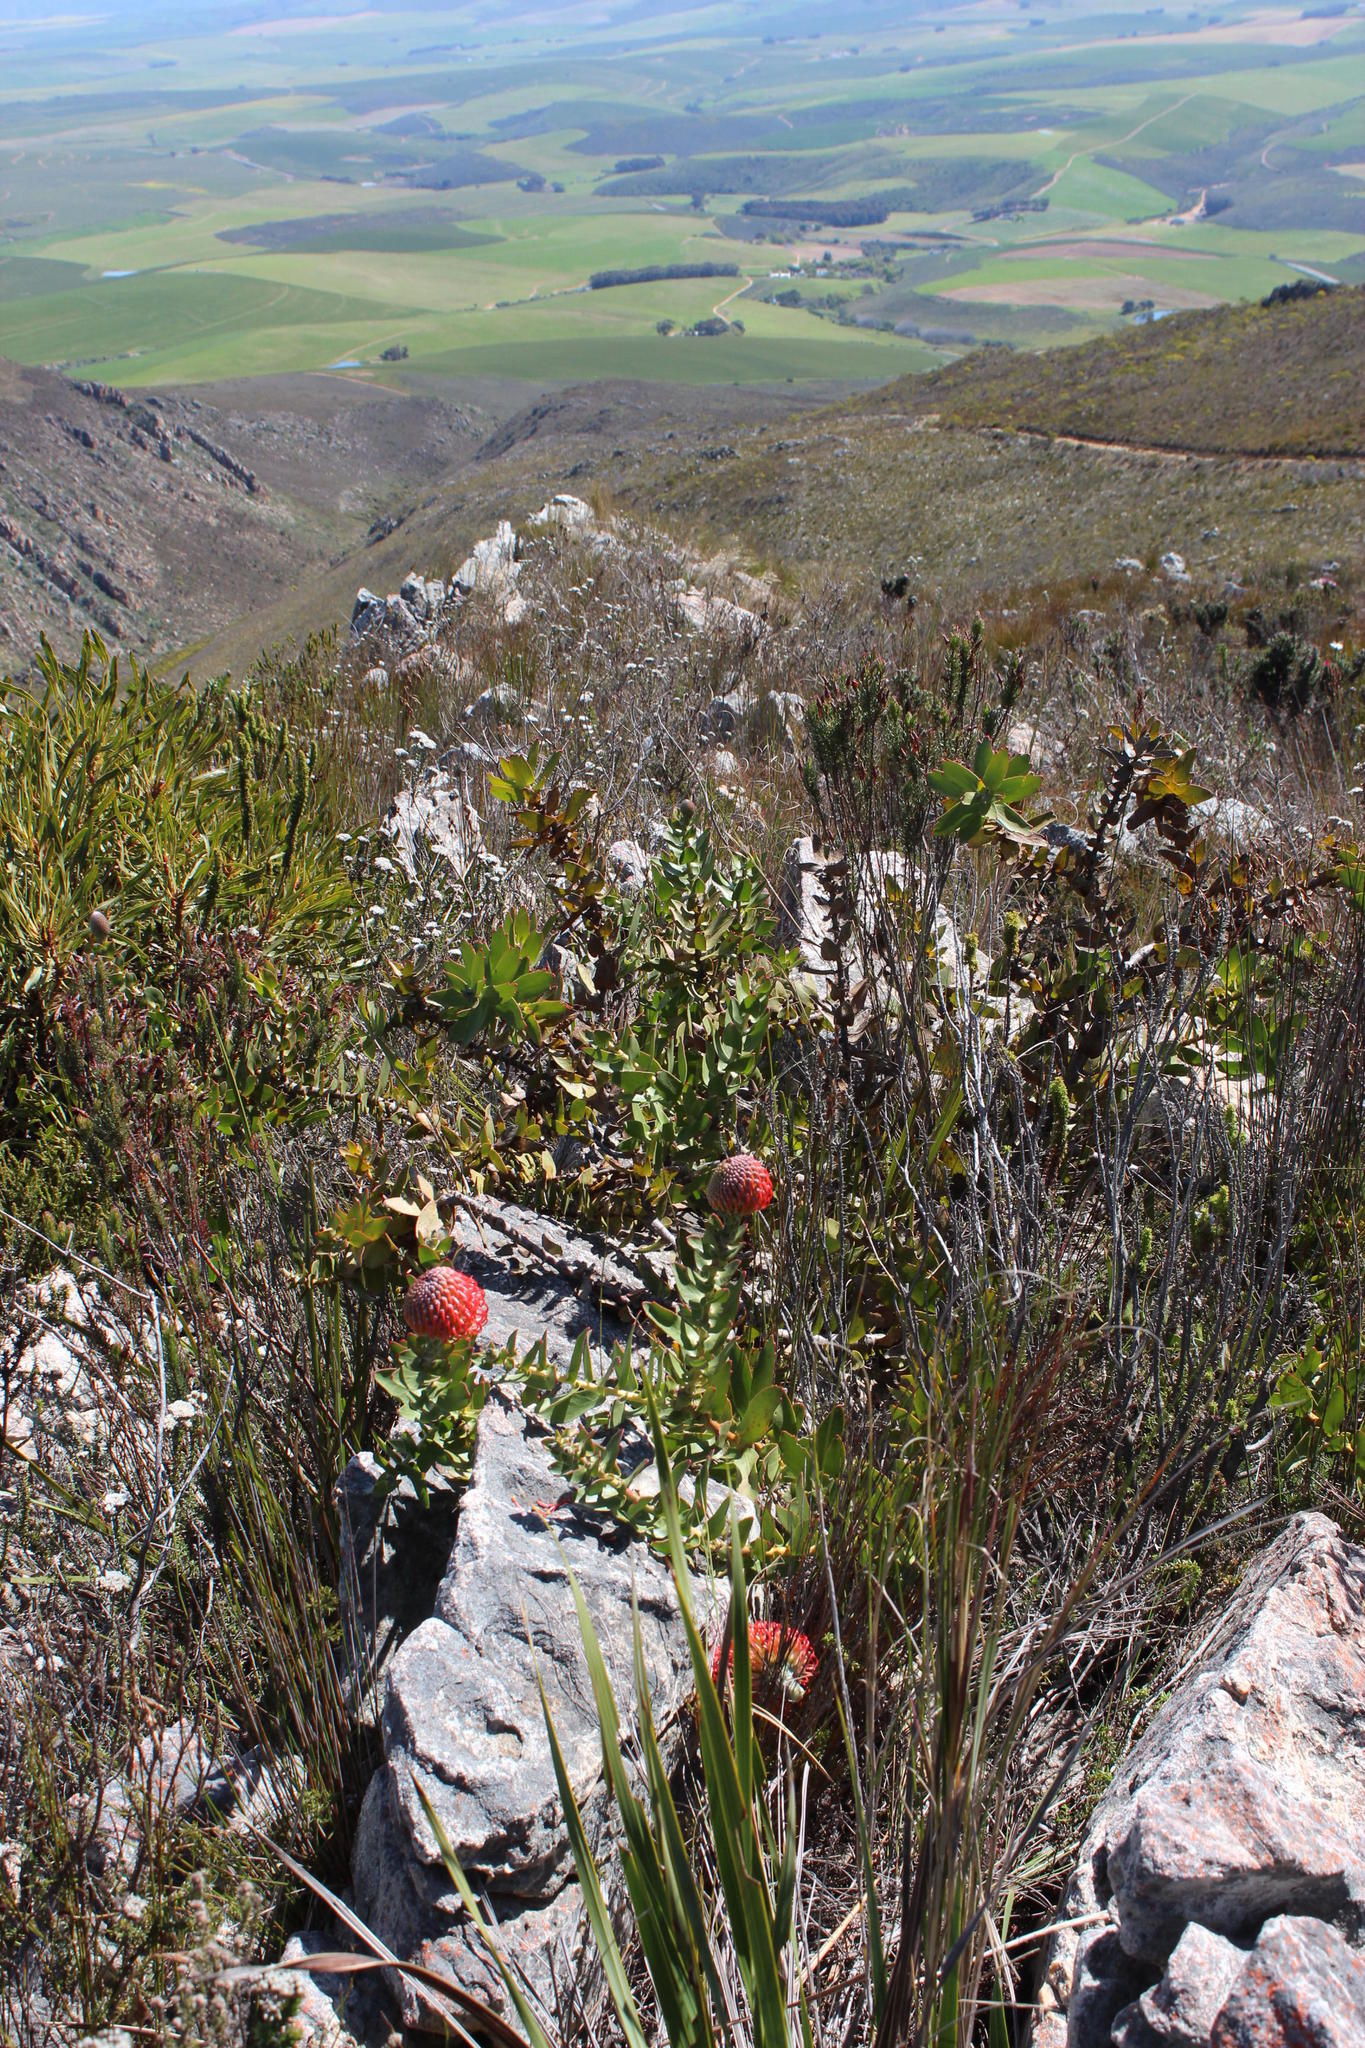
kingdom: Plantae
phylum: Tracheophyta
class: Magnoliopsida
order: Proteales
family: Proteaceae
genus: Leucospermum
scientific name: Leucospermum cordifolium
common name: Red pincushion-protea
